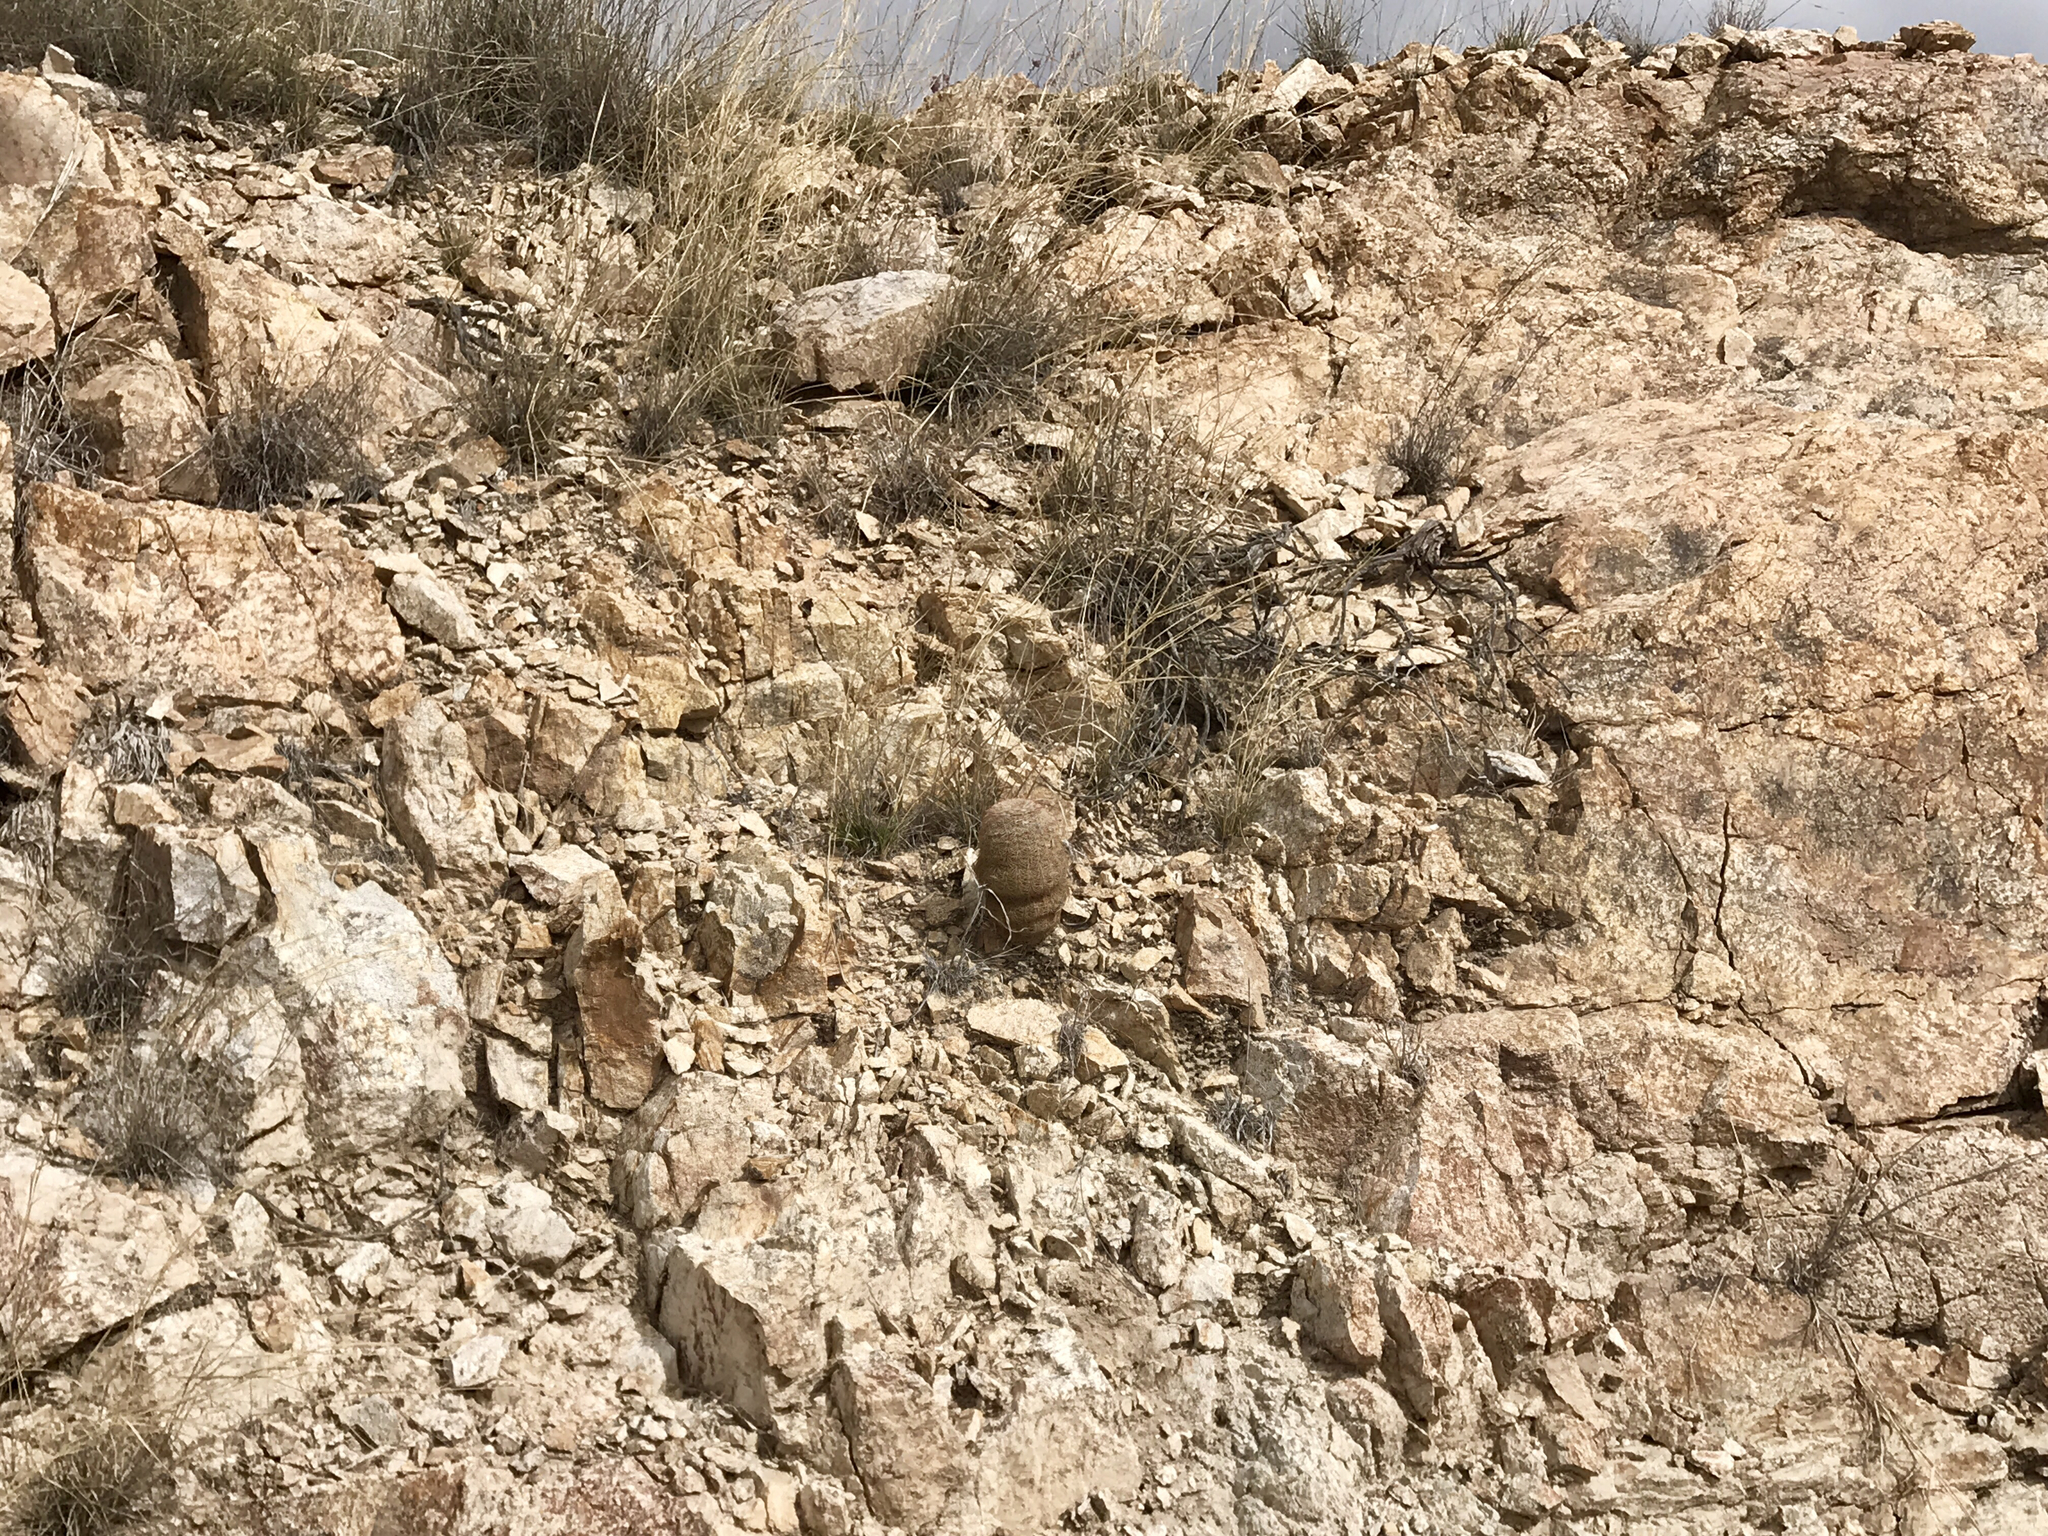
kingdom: Plantae
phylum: Tracheophyta
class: Magnoliopsida
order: Caryophyllales
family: Cactaceae
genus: Echinocereus
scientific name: Echinocereus rigidissimus
